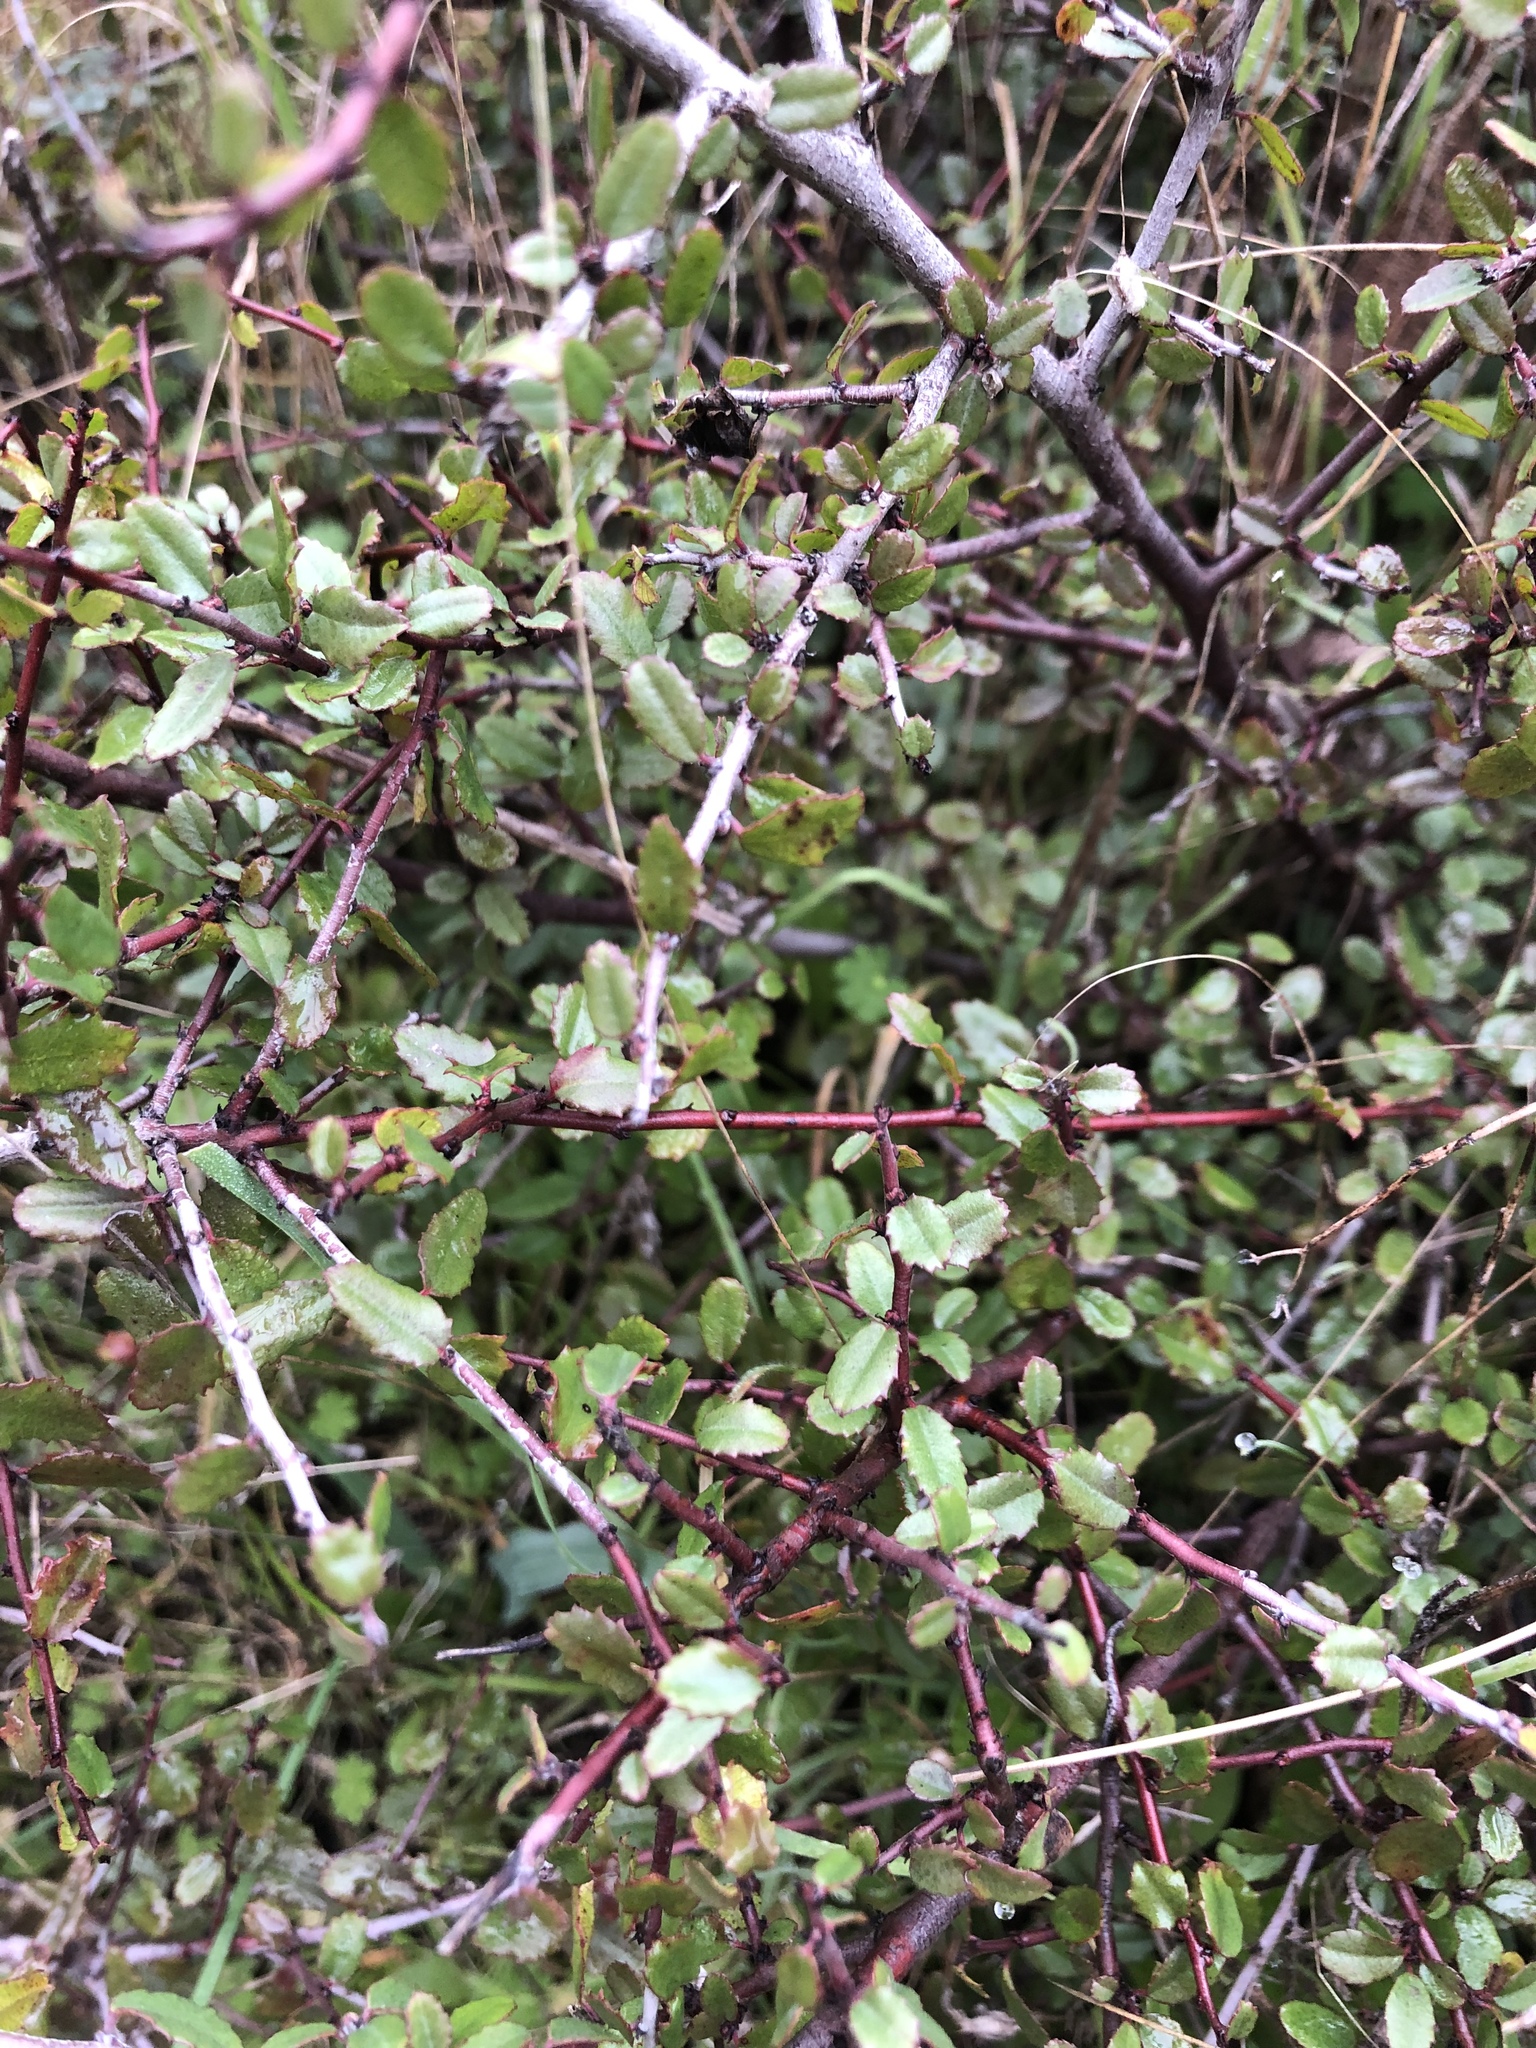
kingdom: Plantae
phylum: Tracheophyta
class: Magnoliopsida
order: Rosales
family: Rhamnaceae
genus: Endotropis
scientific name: Endotropis crocea
